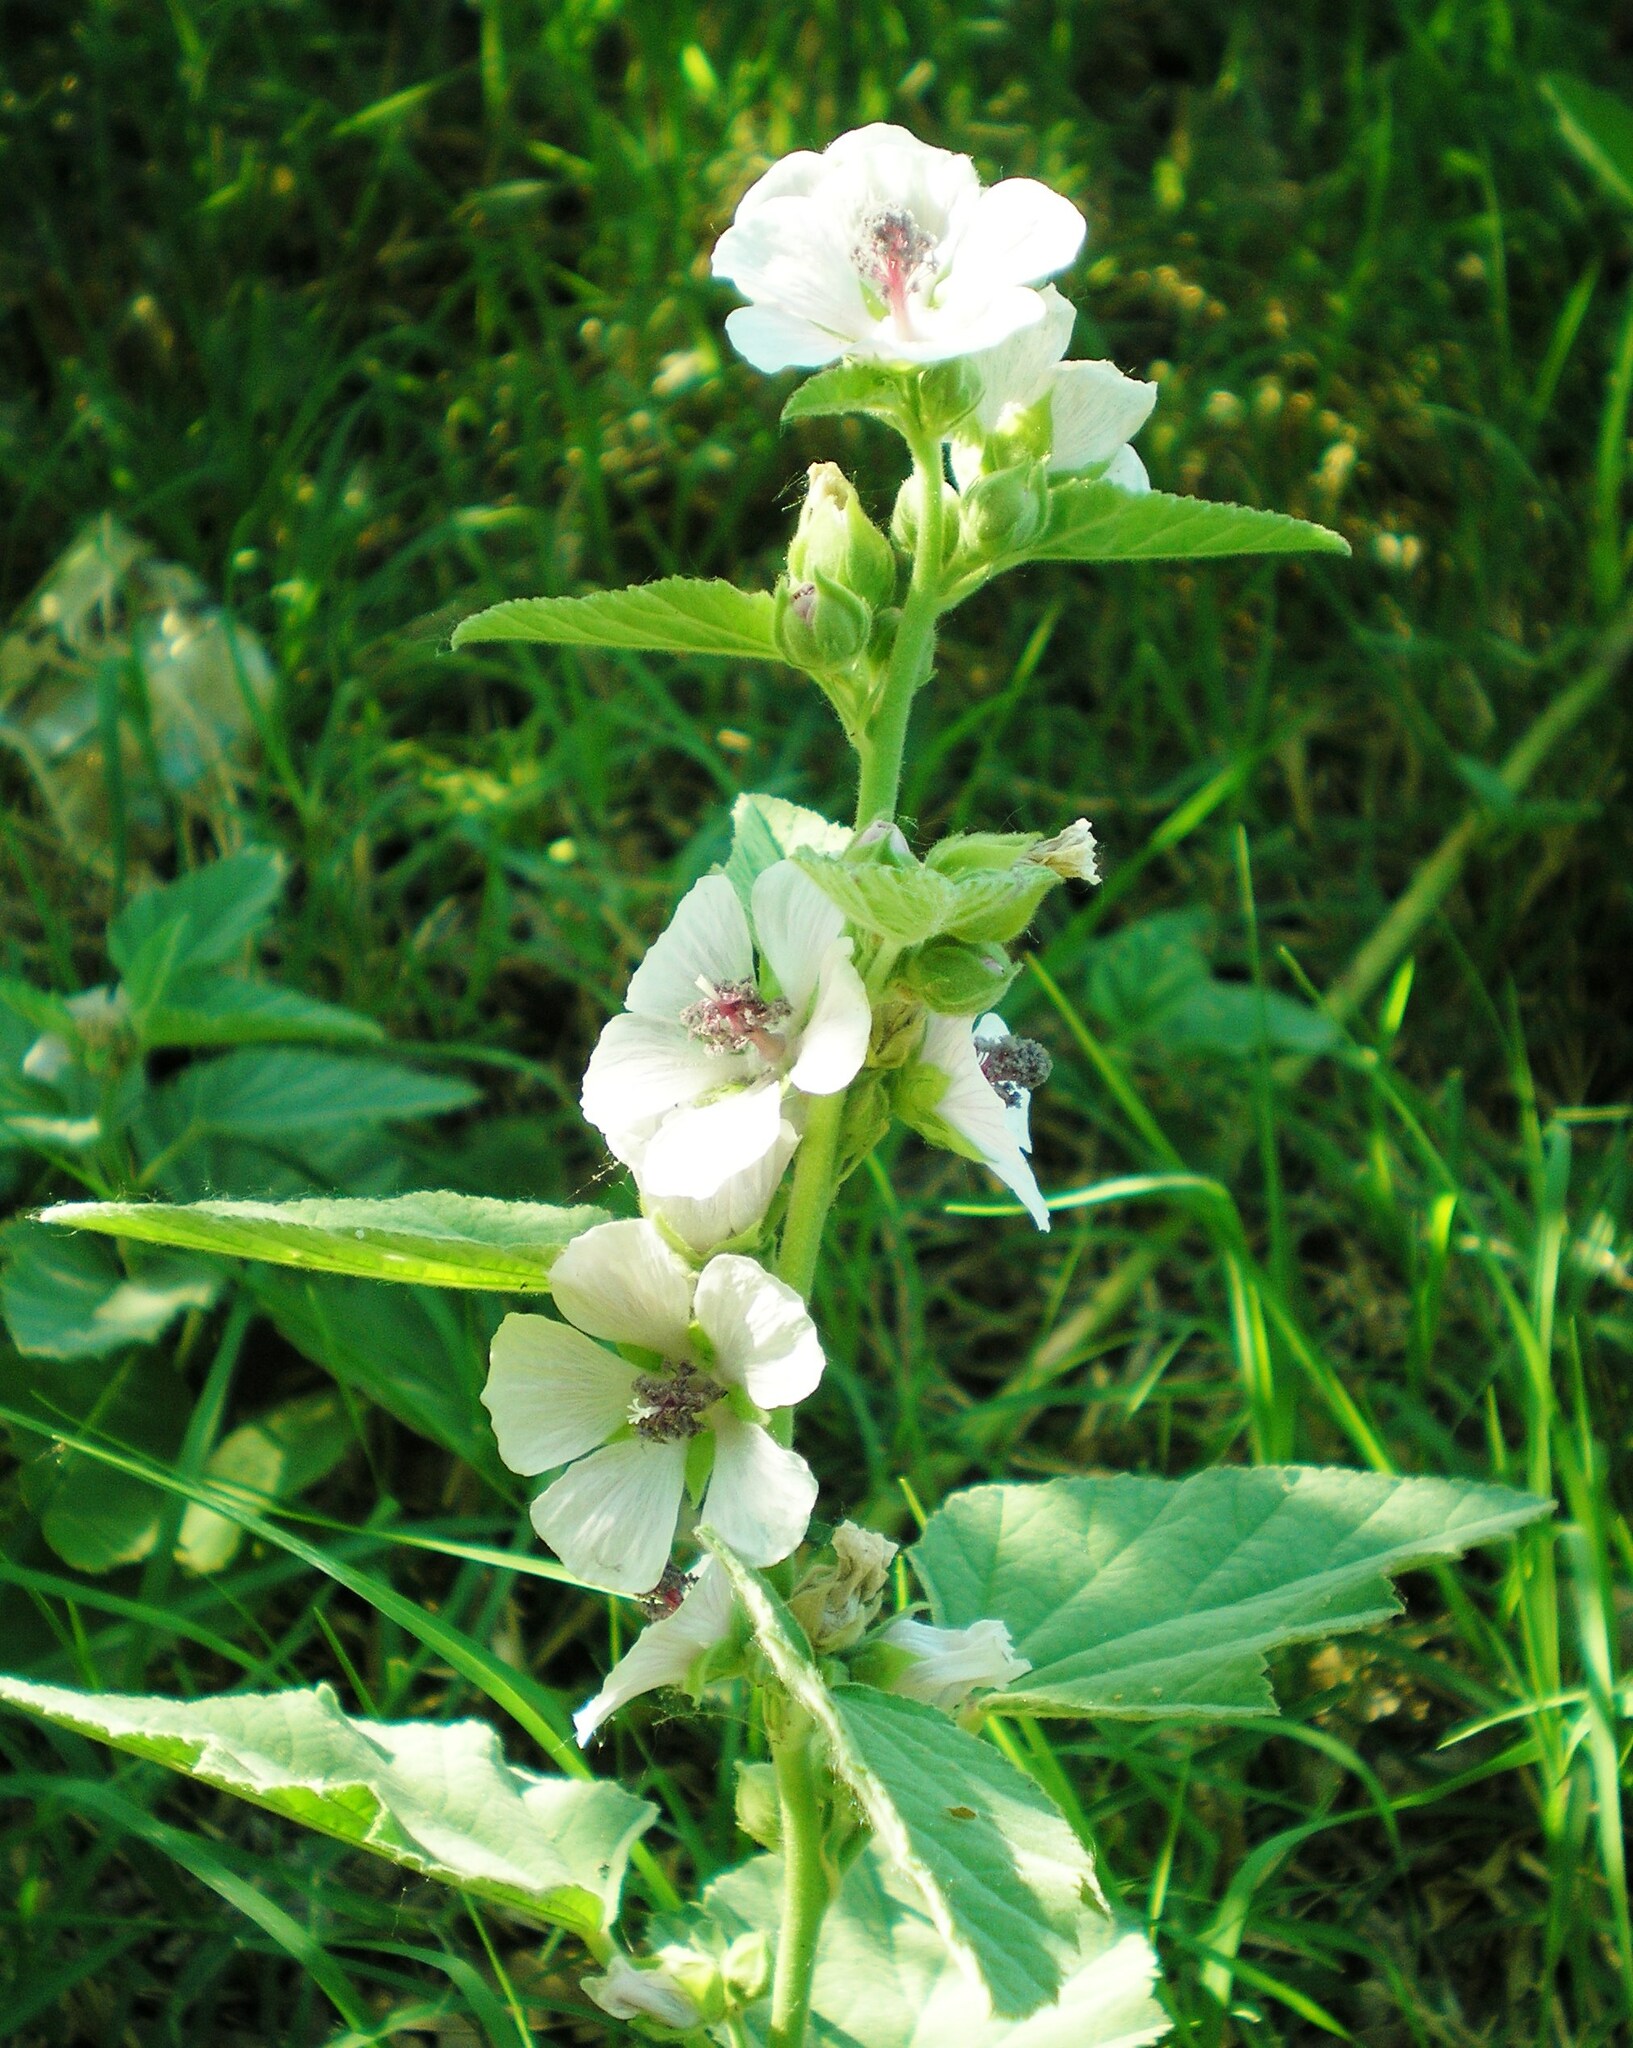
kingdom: Plantae
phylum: Tracheophyta
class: Magnoliopsida
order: Malvales
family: Malvaceae
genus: Althaea
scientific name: Althaea officinalis
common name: Marsh-mallow
